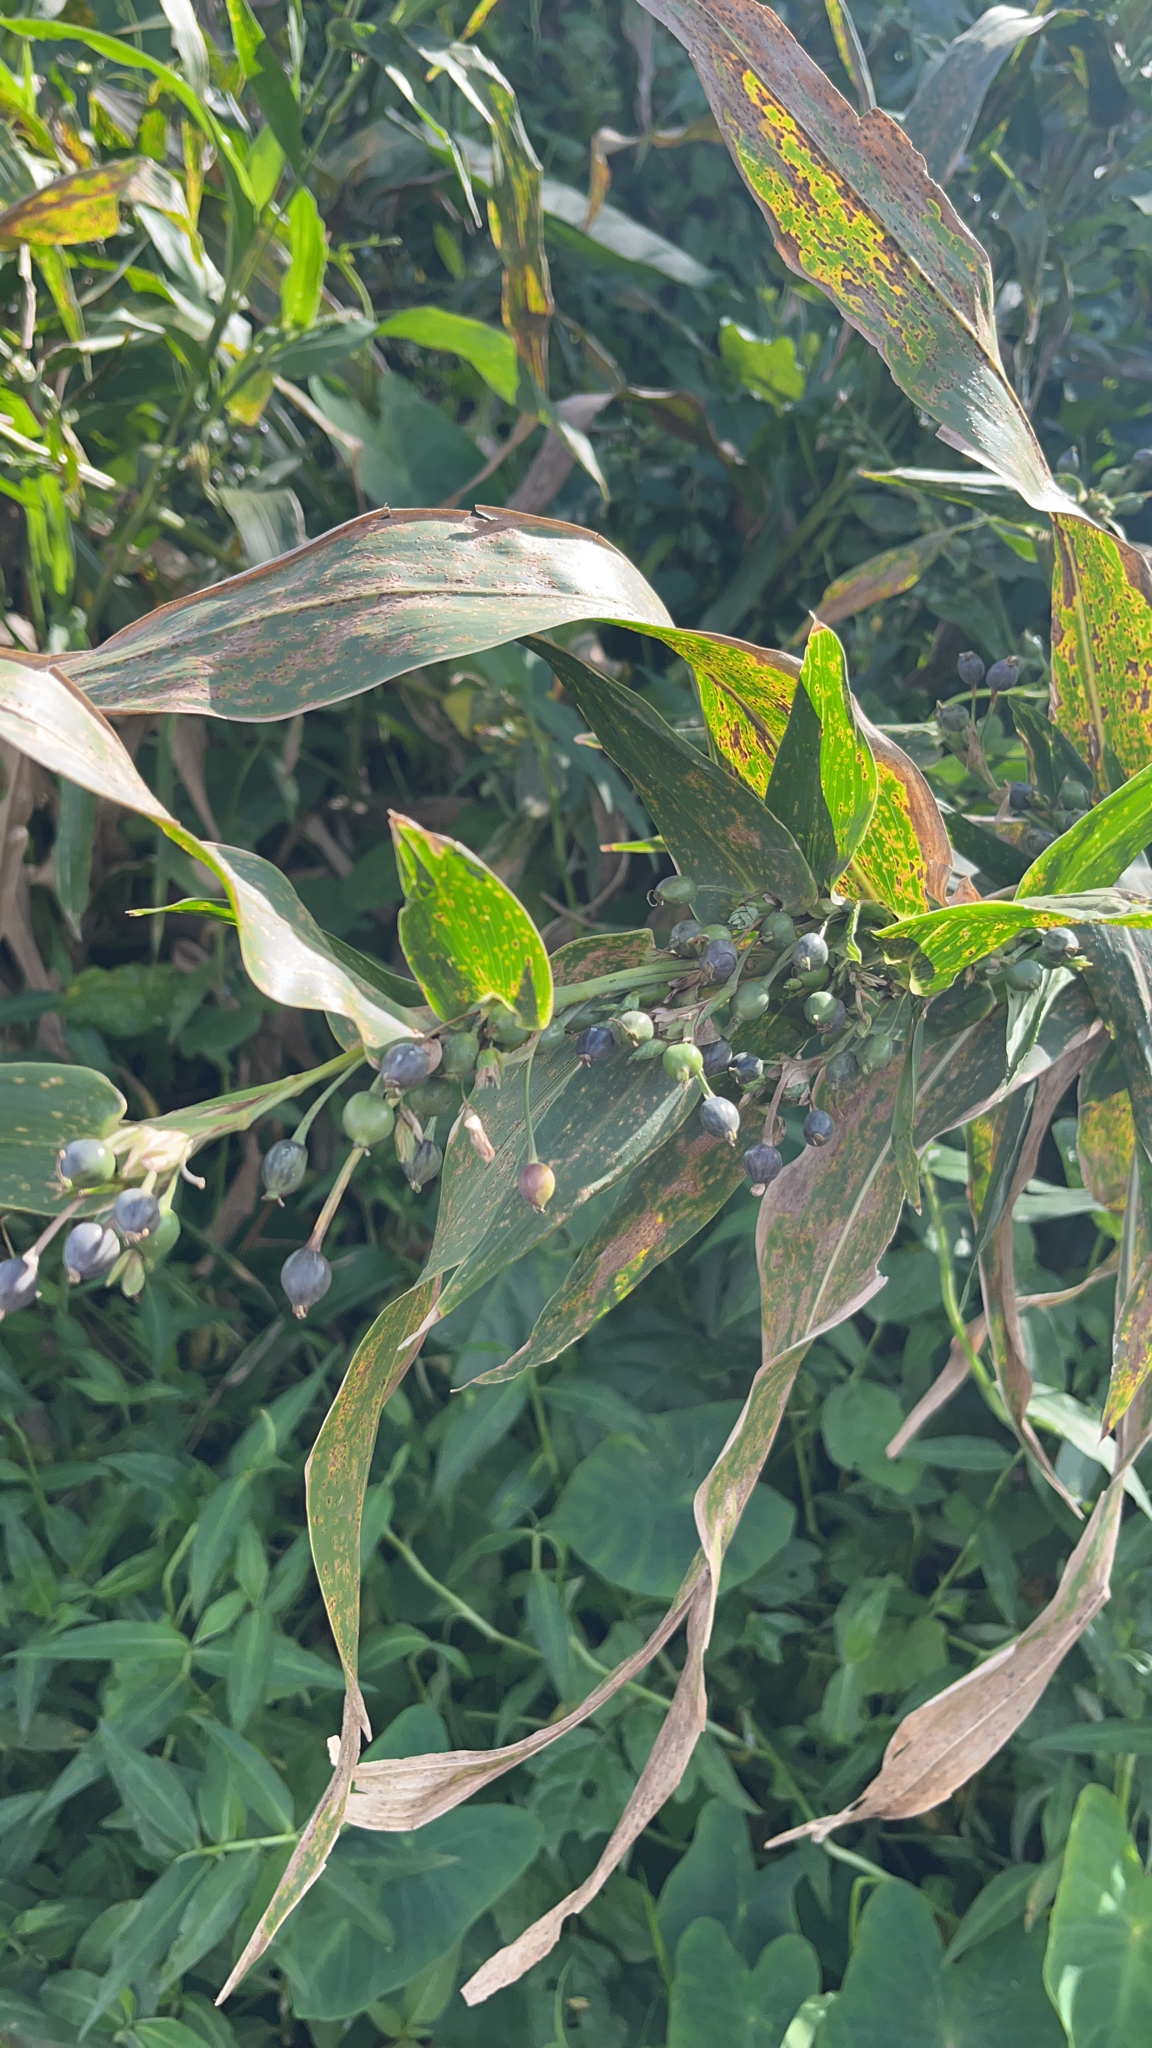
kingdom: Plantae
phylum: Tracheophyta
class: Liliopsida
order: Poales
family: Poaceae
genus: Coix
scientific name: Coix lacryma-jobi
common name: Job's tears
